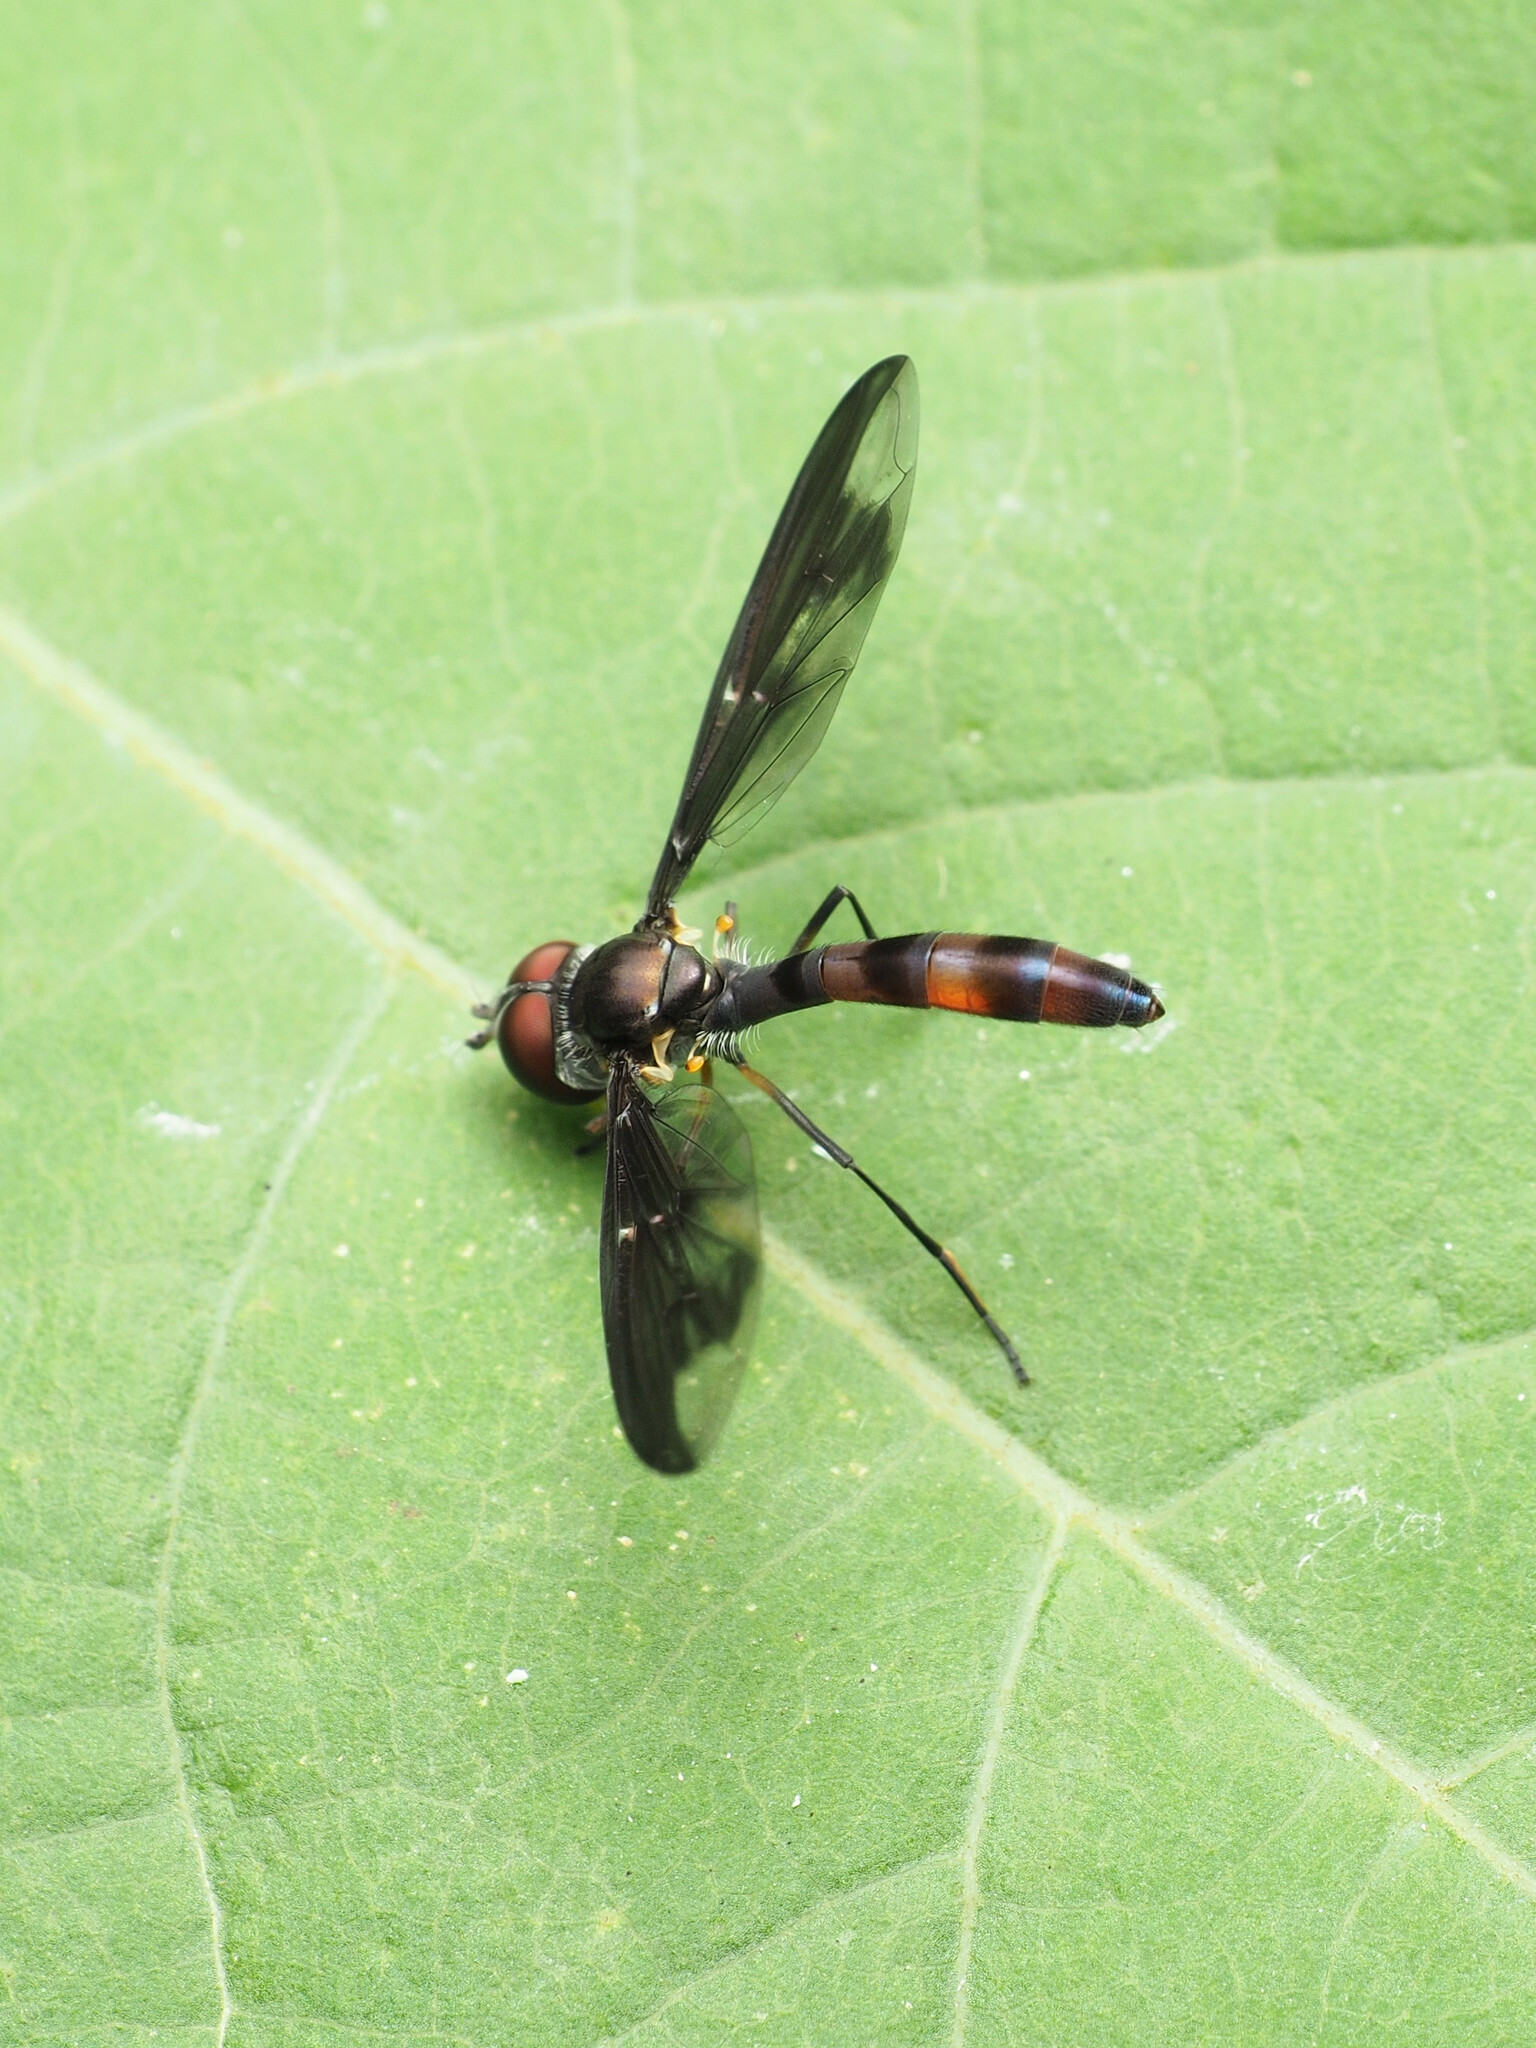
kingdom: Animalia
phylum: Arthropoda
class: Insecta
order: Diptera
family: Syrphidae
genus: Ocyptamus
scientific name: Ocyptamus fuscipennis
